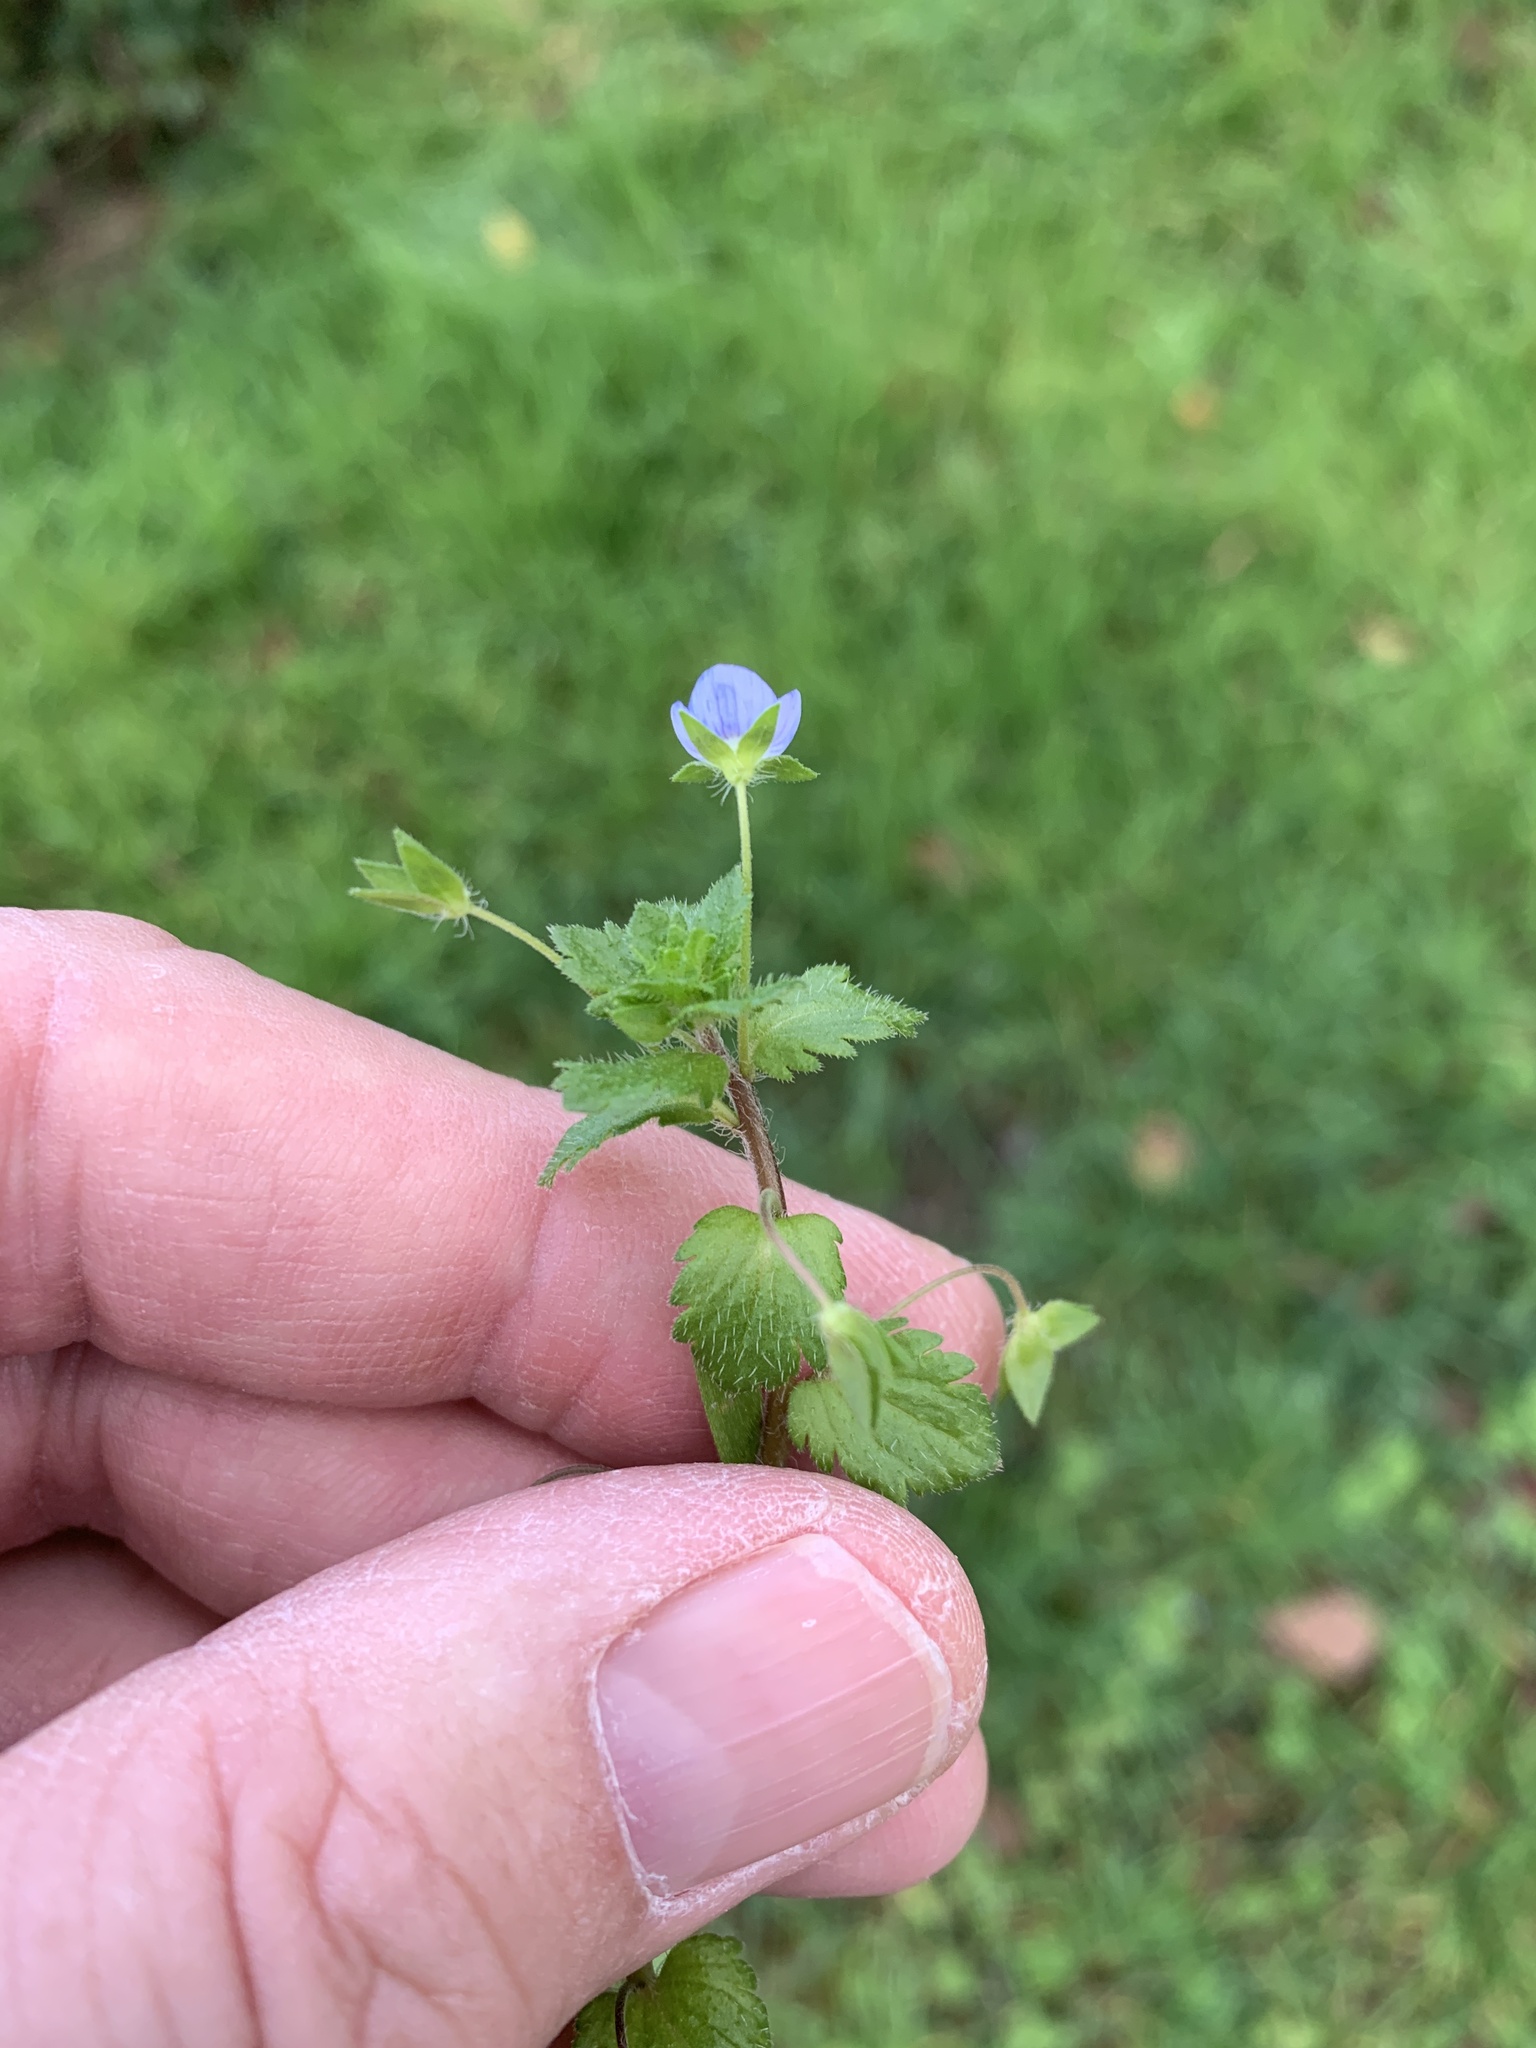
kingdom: Plantae
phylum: Tracheophyta
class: Magnoliopsida
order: Lamiales
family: Plantaginaceae
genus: Veronica
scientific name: Veronica persica
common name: Common field-speedwell
